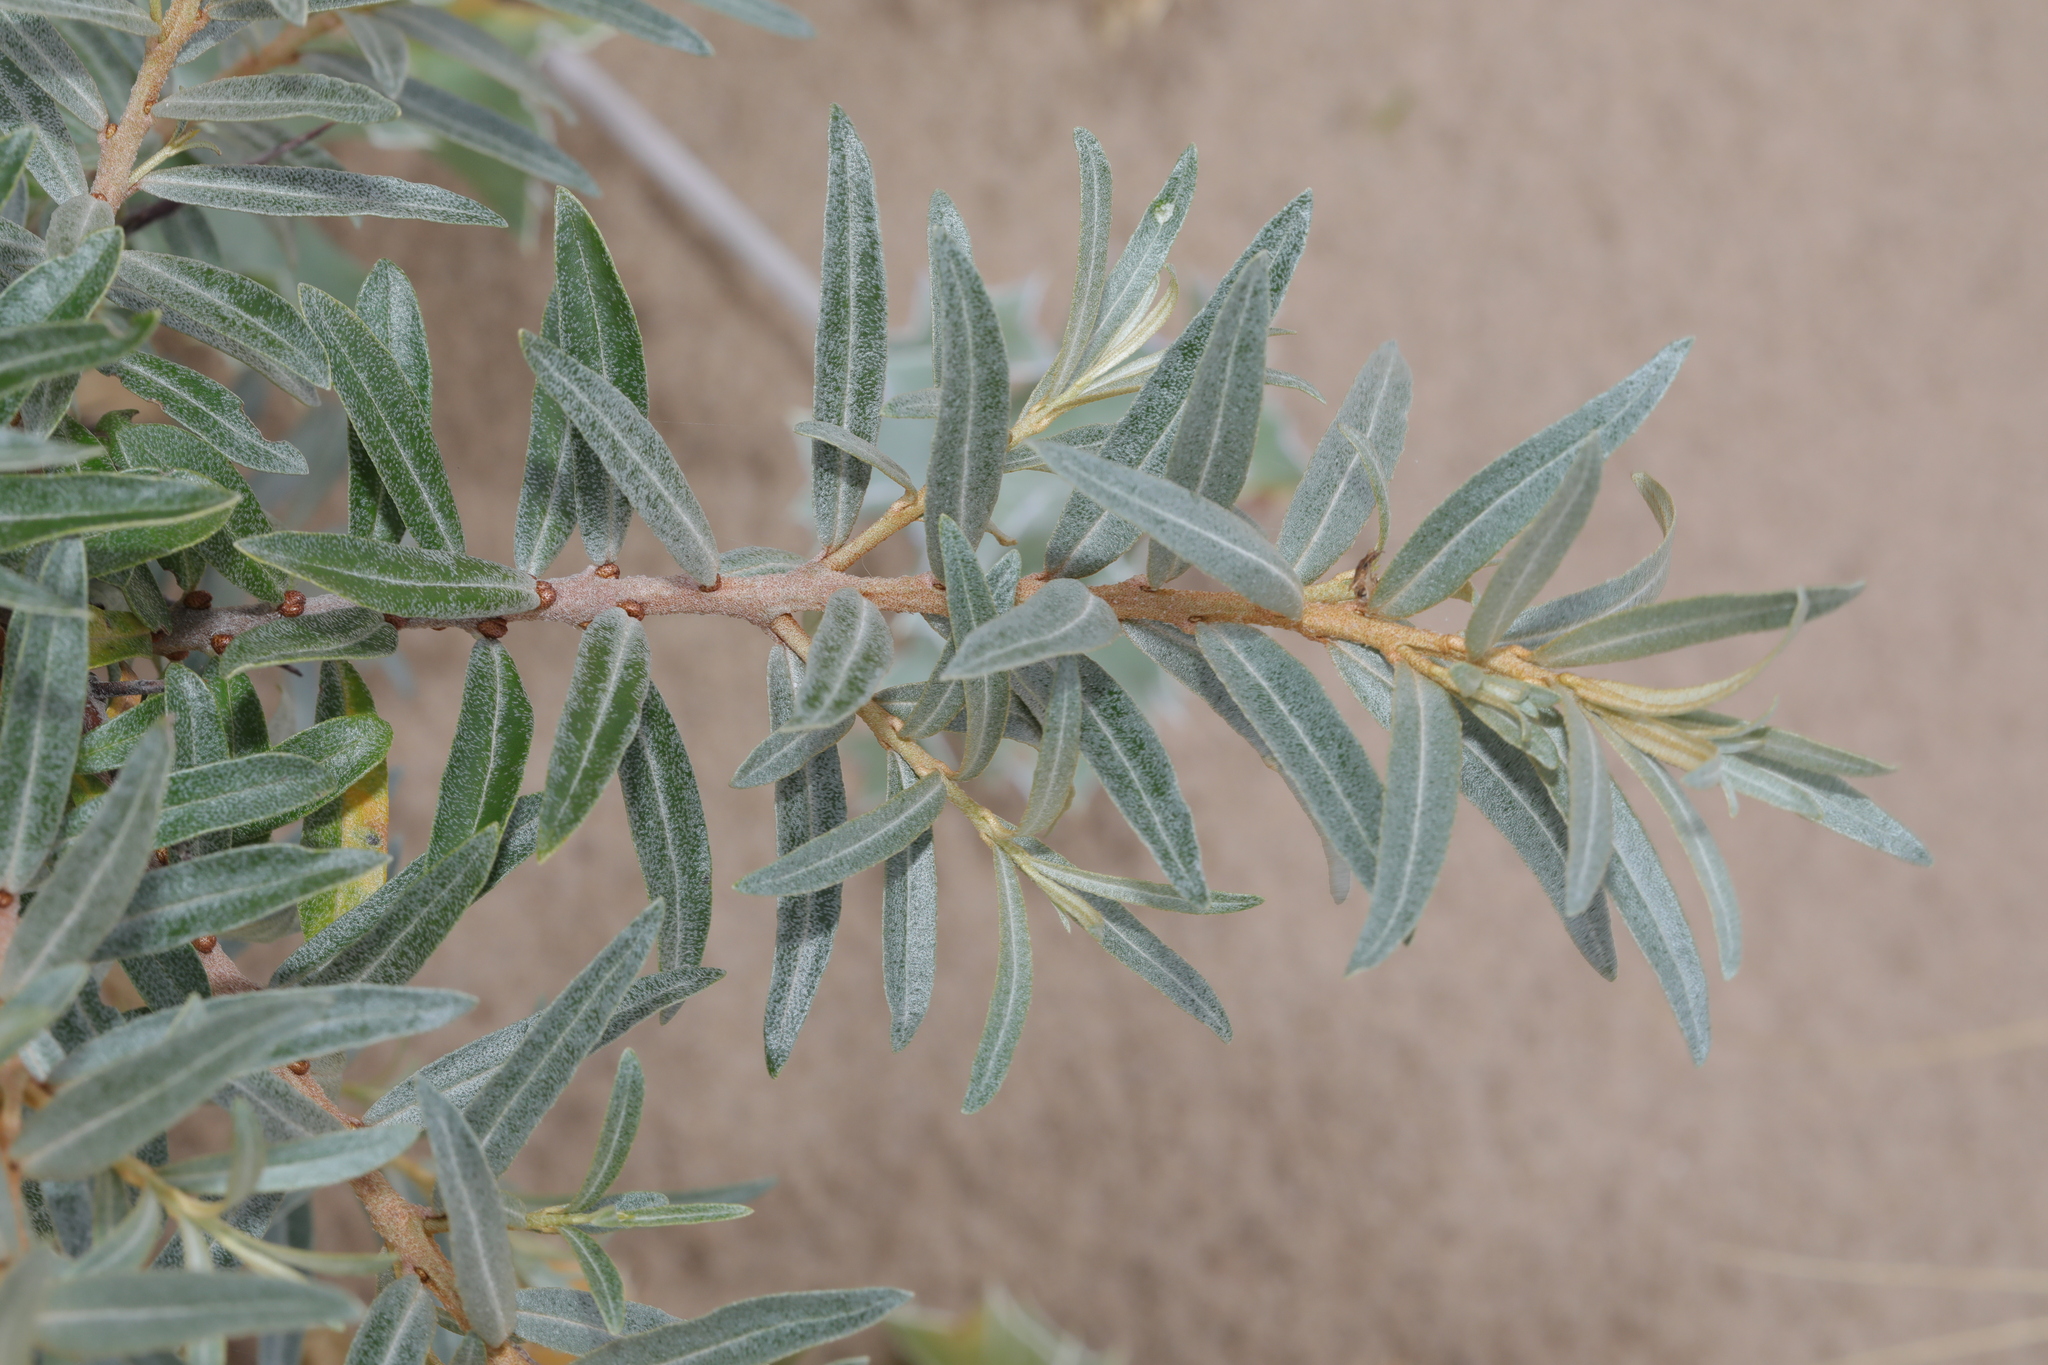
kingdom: Plantae
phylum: Tracheophyta
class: Magnoliopsida
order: Rosales
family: Elaeagnaceae
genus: Hippophae
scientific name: Hippophae rhamnoides
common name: Sea-buckthorn
